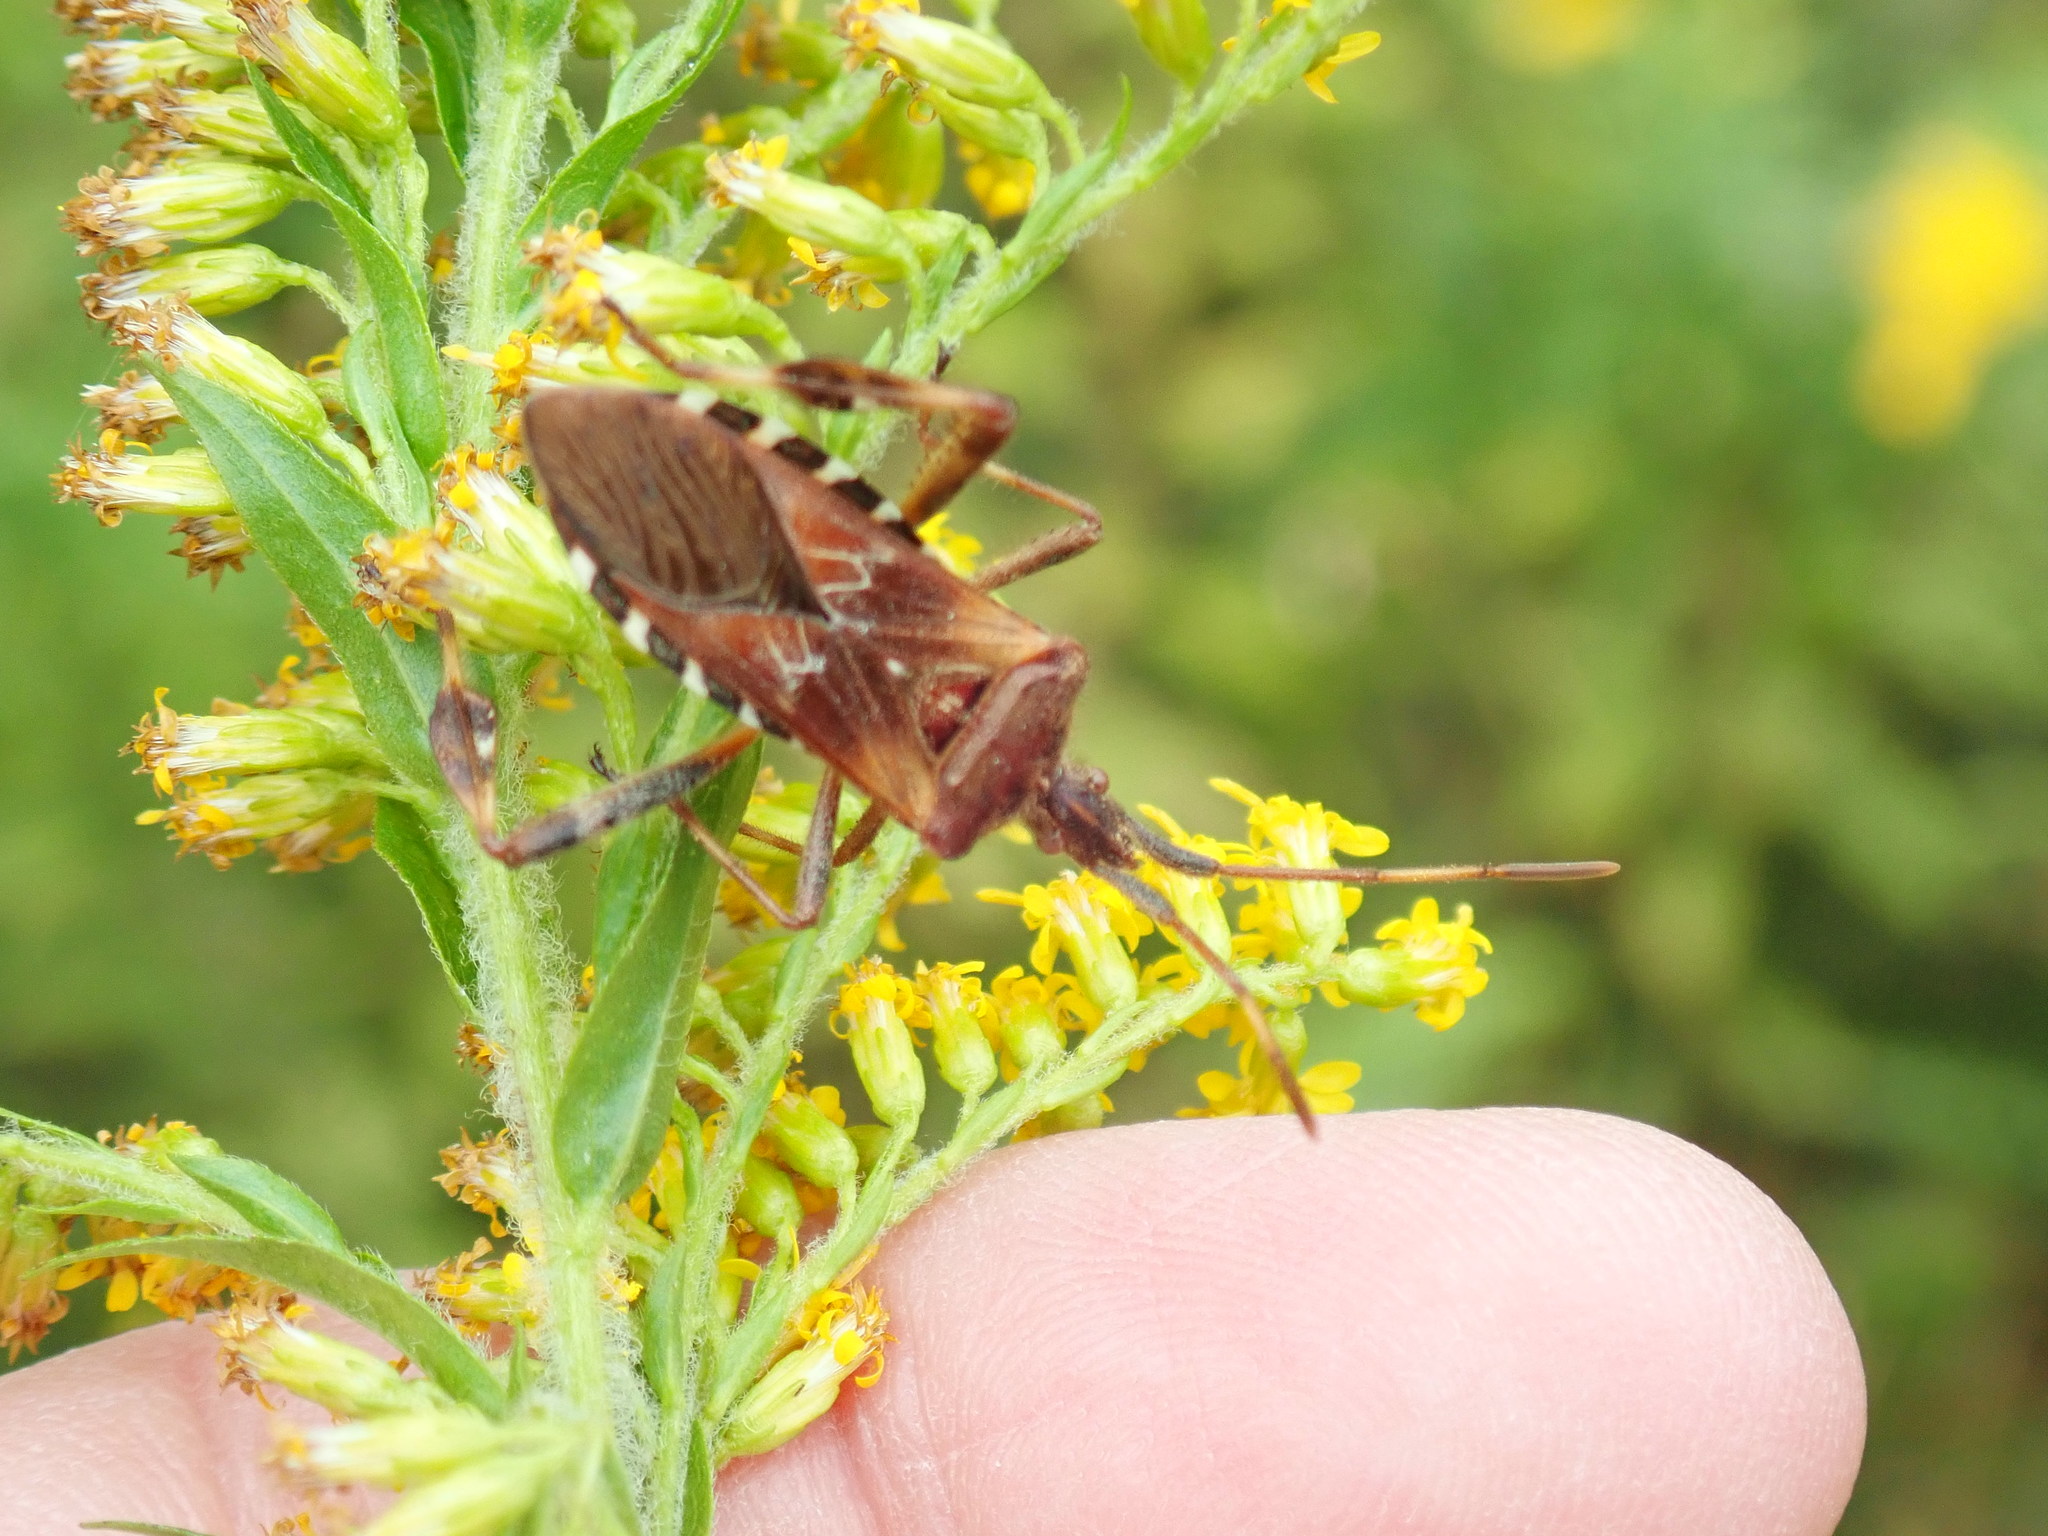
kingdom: Animalia
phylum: Arthropoda
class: Insecta
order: Hemiptera
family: Coreidae
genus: Leptoglossus
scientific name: Leptoglossus occidentalis
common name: Western conifer-seed bug
